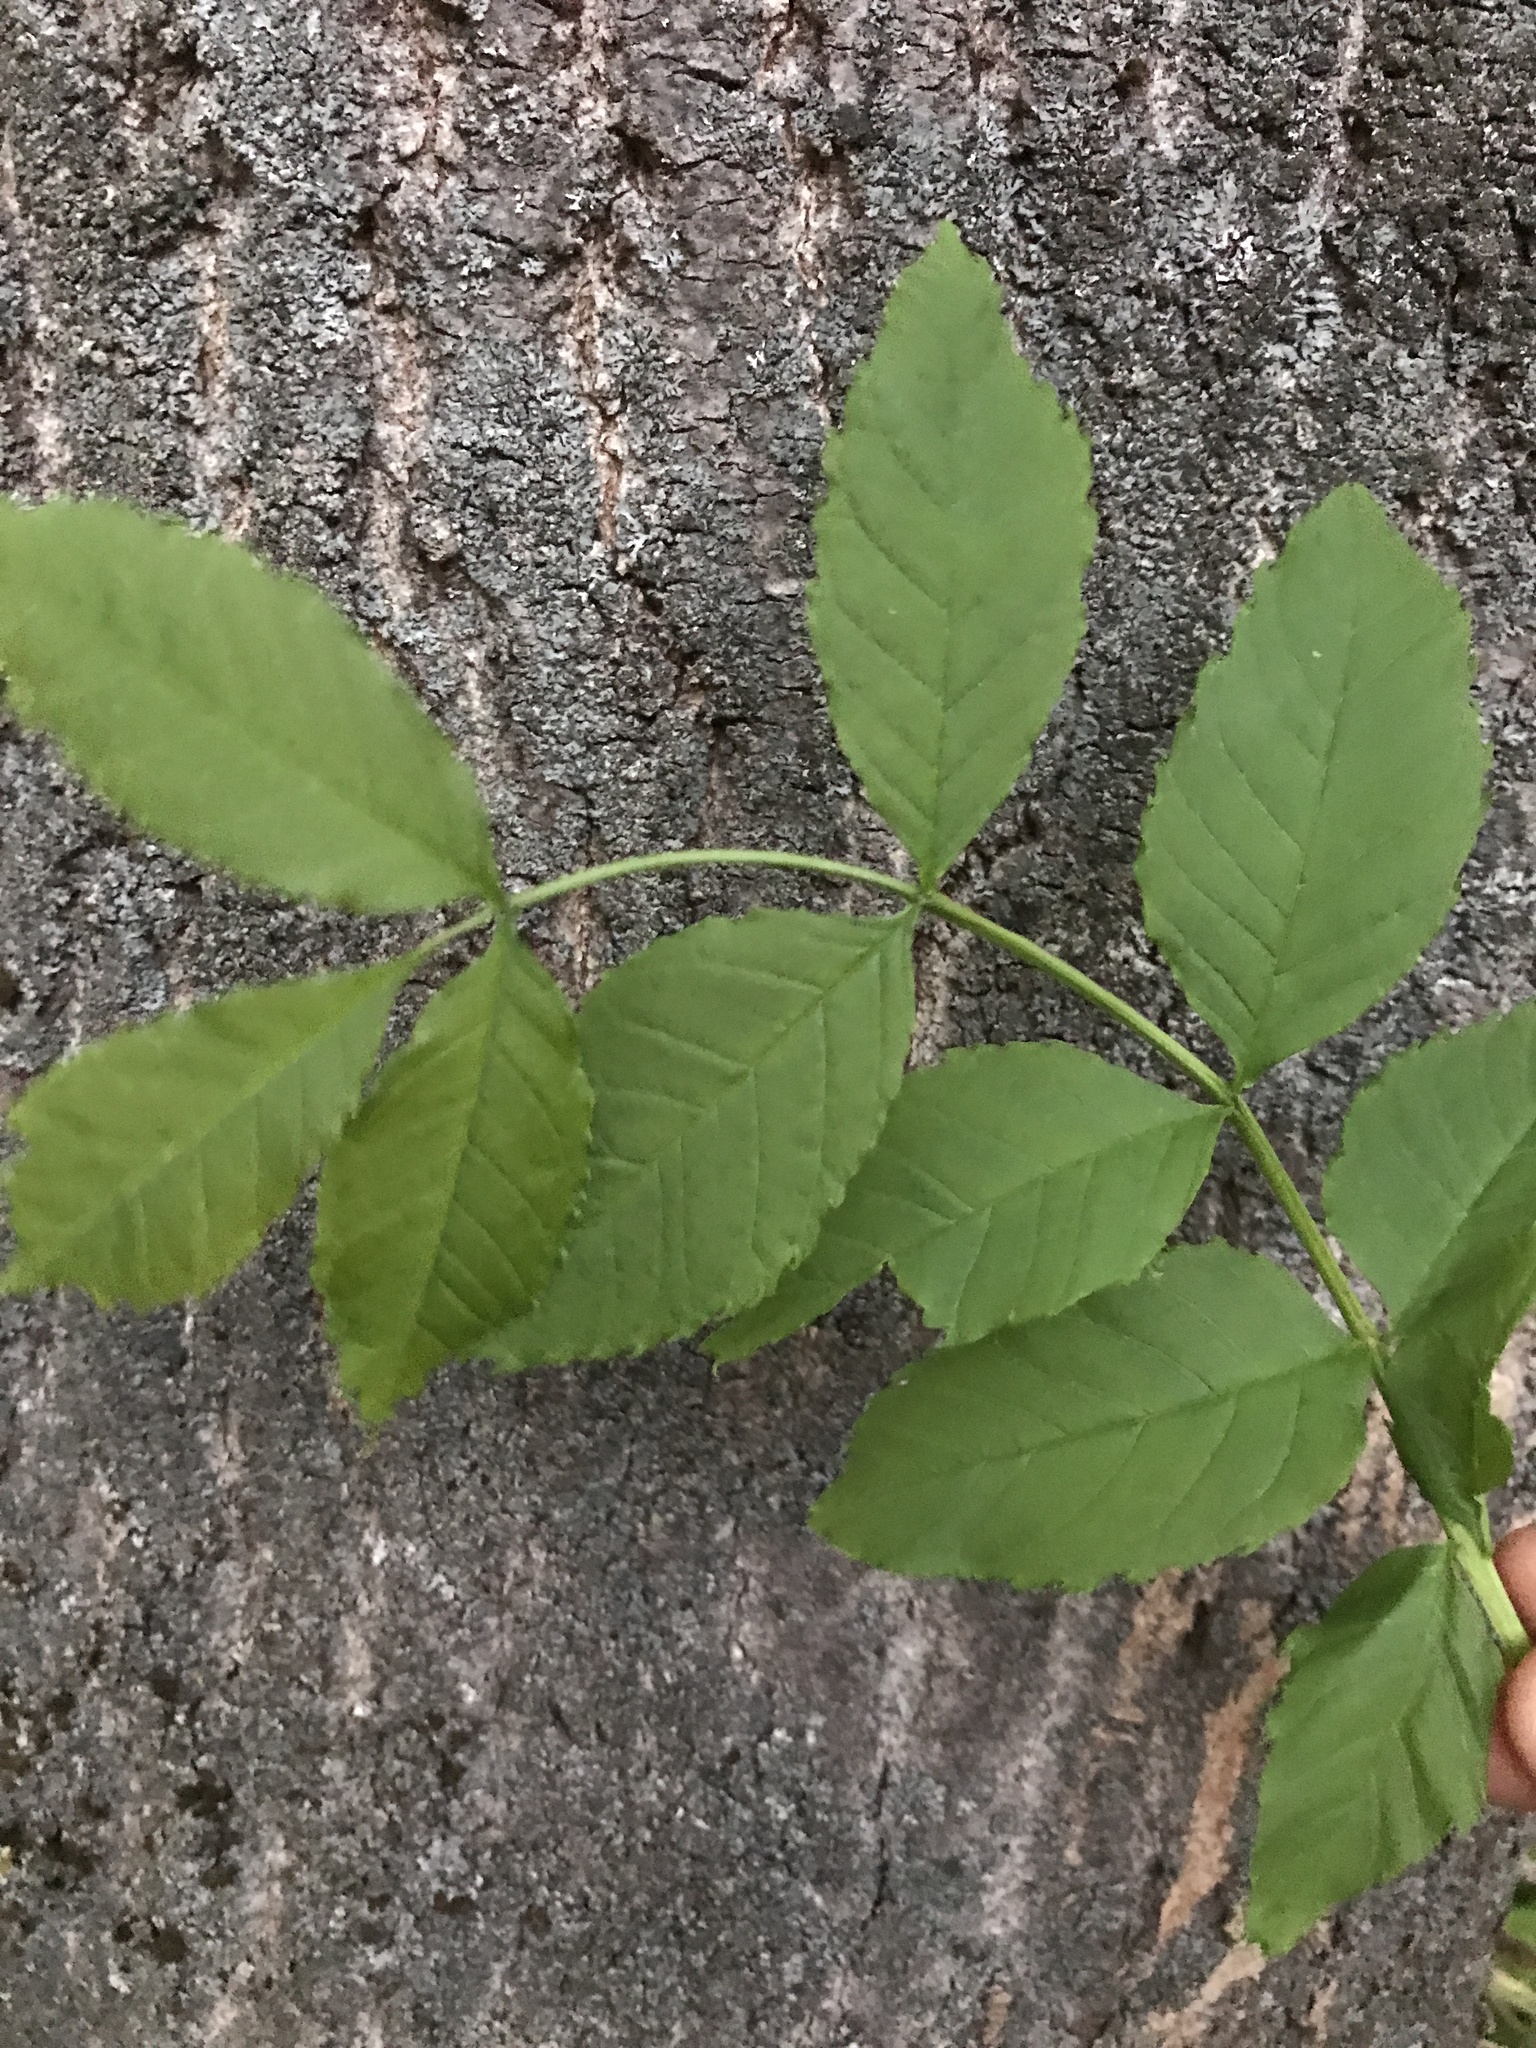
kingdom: Plantae
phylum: Tracheophyta
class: Magnoliopsida
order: Lamiales
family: Oleaceae
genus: Fraxinus
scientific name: Fraxinus excelsior
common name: European ash
